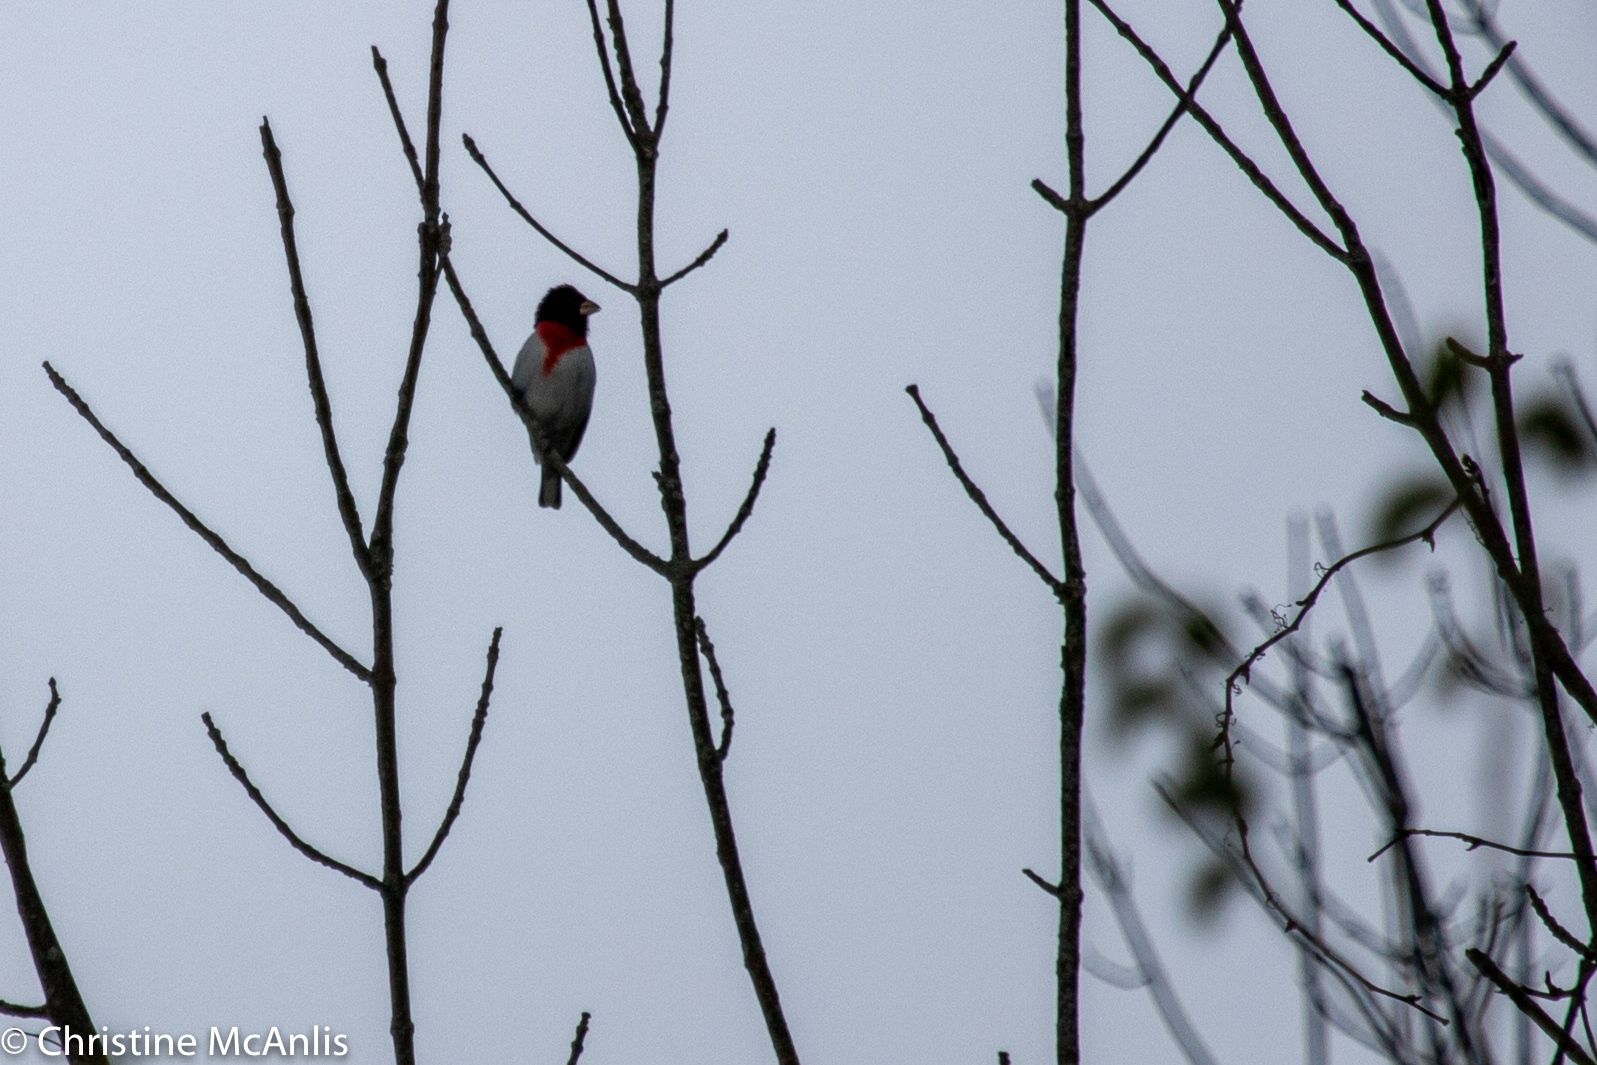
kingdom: Animalia
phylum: Chordata
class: Aves
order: Passeriformes
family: Cardinalidae
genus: Pheucticus
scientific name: Pheucticus ludovicianus
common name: Rose-breasted grosbeak
